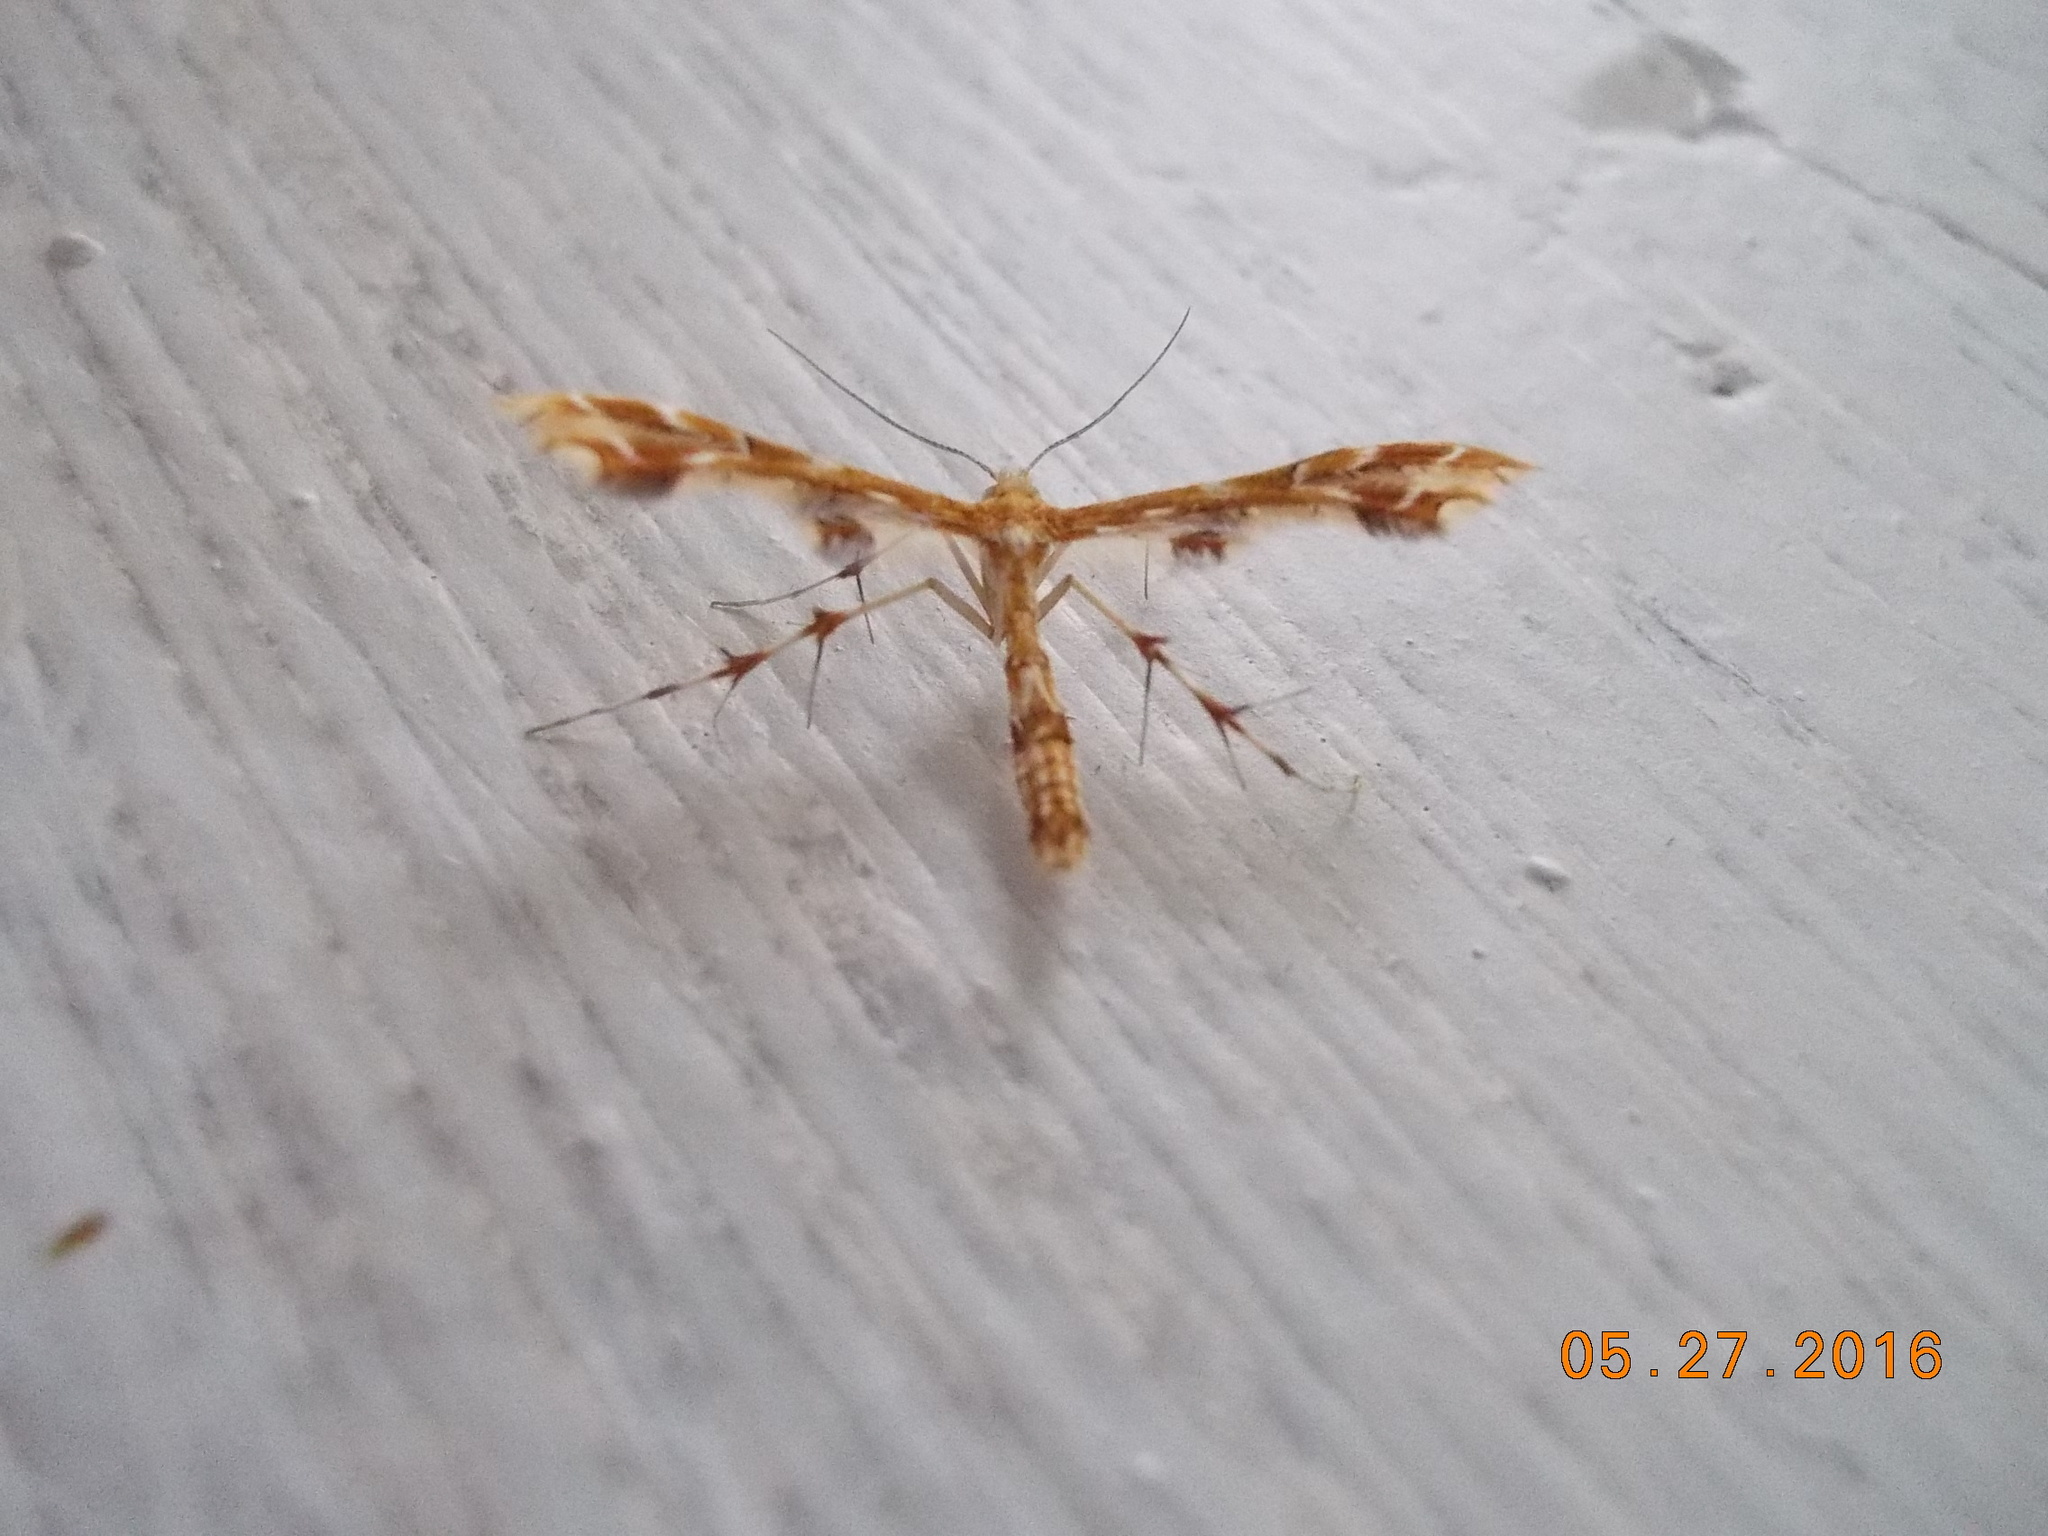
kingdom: Animalia
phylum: Arthropoda
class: Insecta
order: Lepidoptera
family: Pterophoridae
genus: Geina
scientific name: Geina periscelidactylus
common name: Grape plume moth
